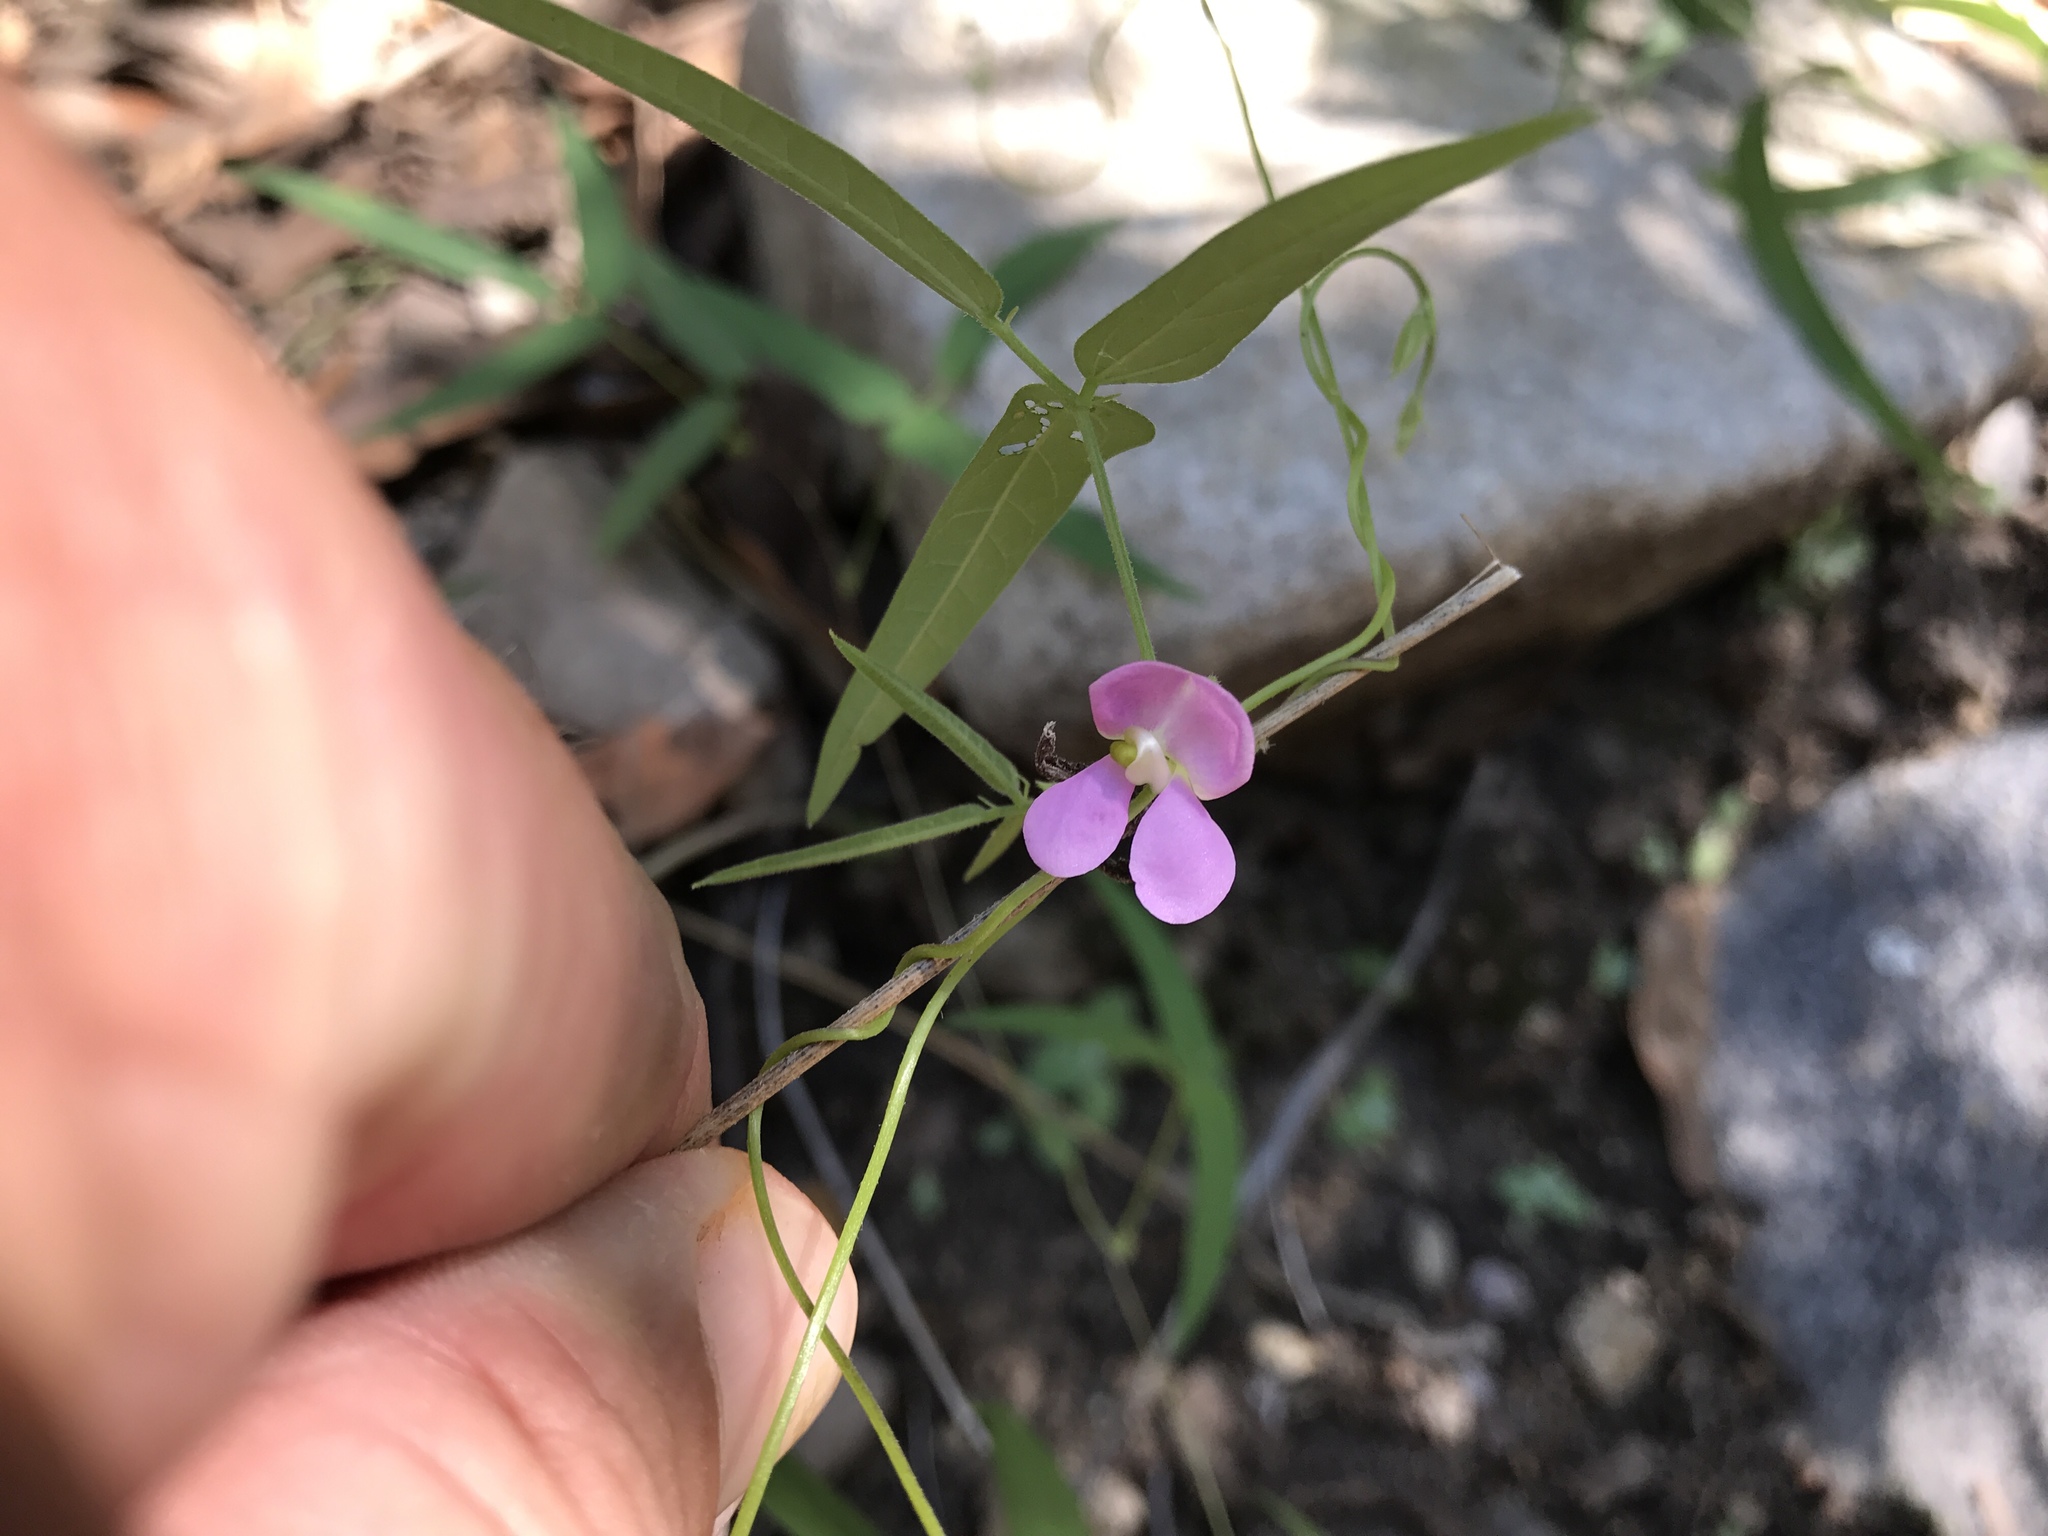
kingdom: Plantae
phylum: Tracheophyta
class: Magnoliopsida
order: Fabales
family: Fabaceae
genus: Phaseolus
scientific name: Phaseolus acutifolius
